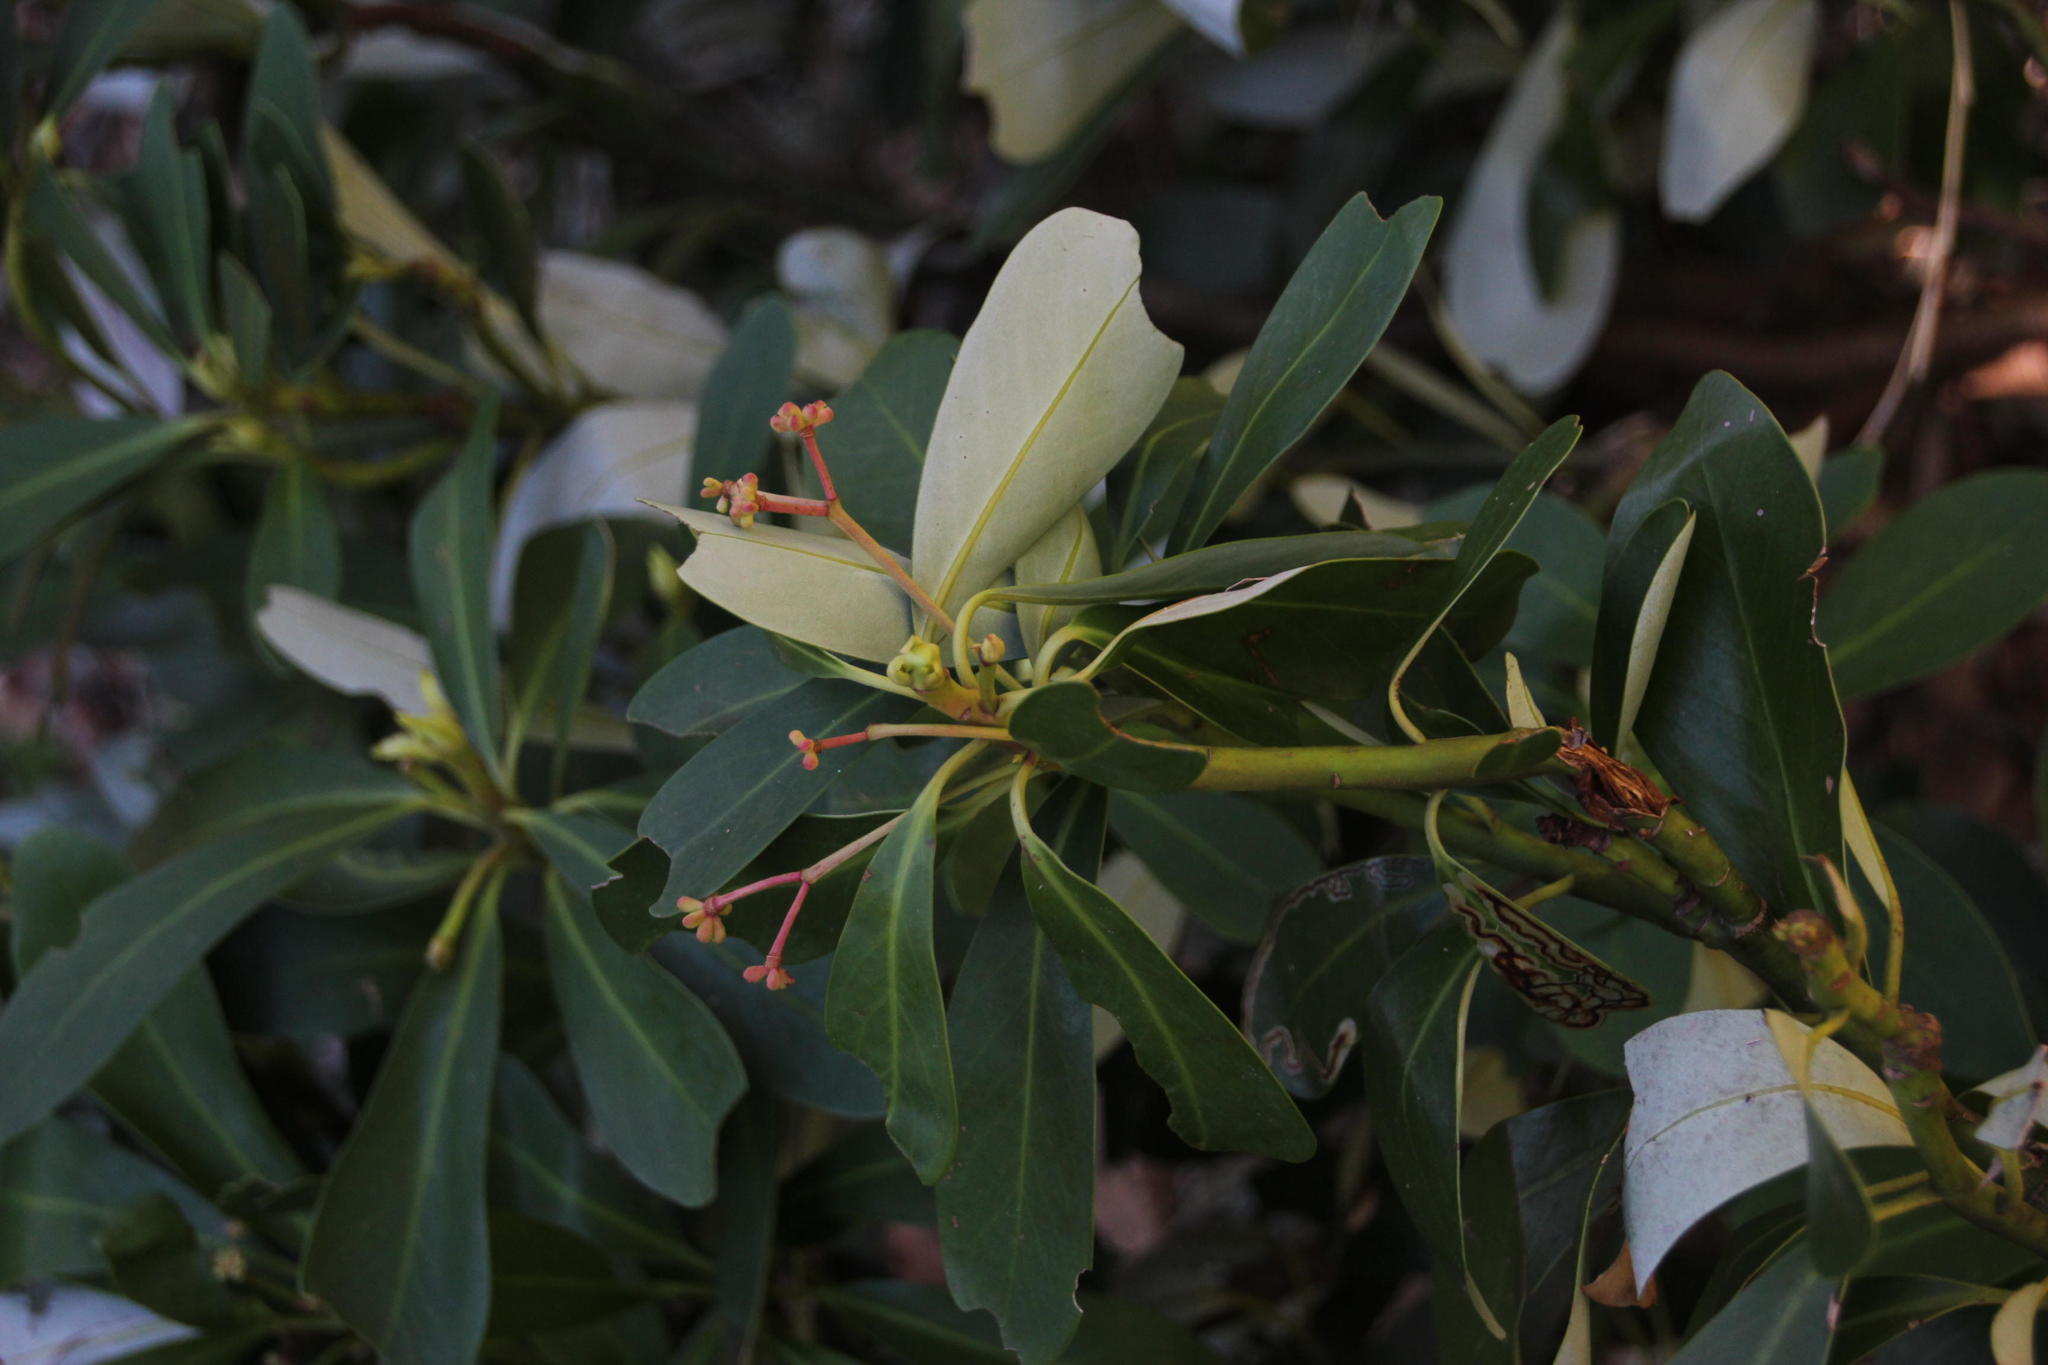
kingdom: Plantae
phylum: Tracheophyta
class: Magnoliopsida
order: Canellales
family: Winteraceae
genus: Drimys
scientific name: Drimys andina
